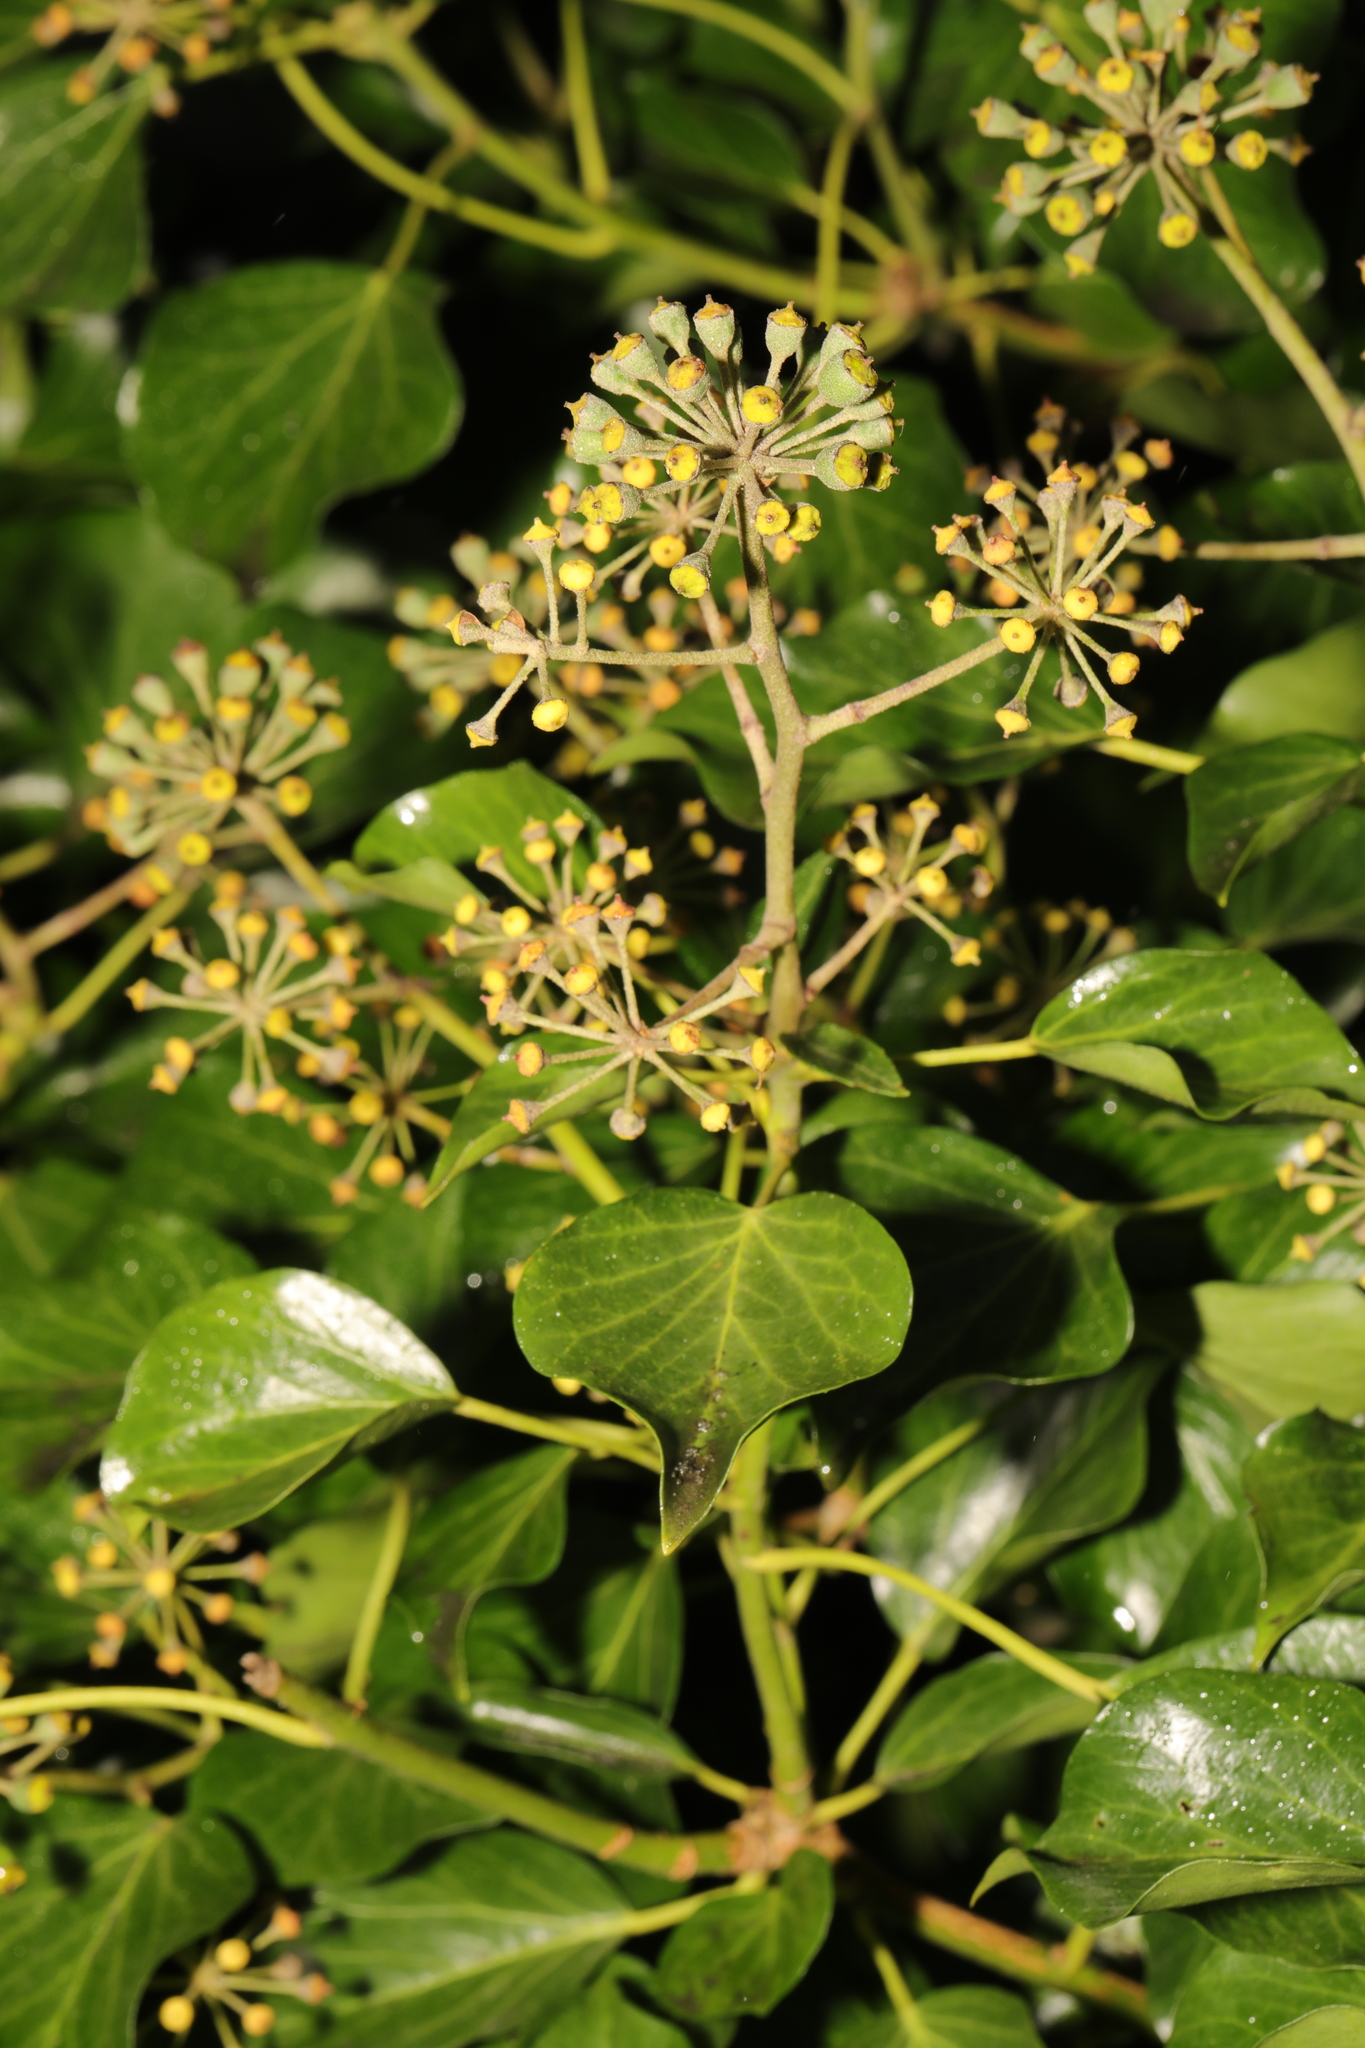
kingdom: Plantae
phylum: Tracheophyta
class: Magnoliopsida
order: Apiales
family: Araliaceae
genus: Hedera
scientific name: Hedera helix
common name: Ivy
